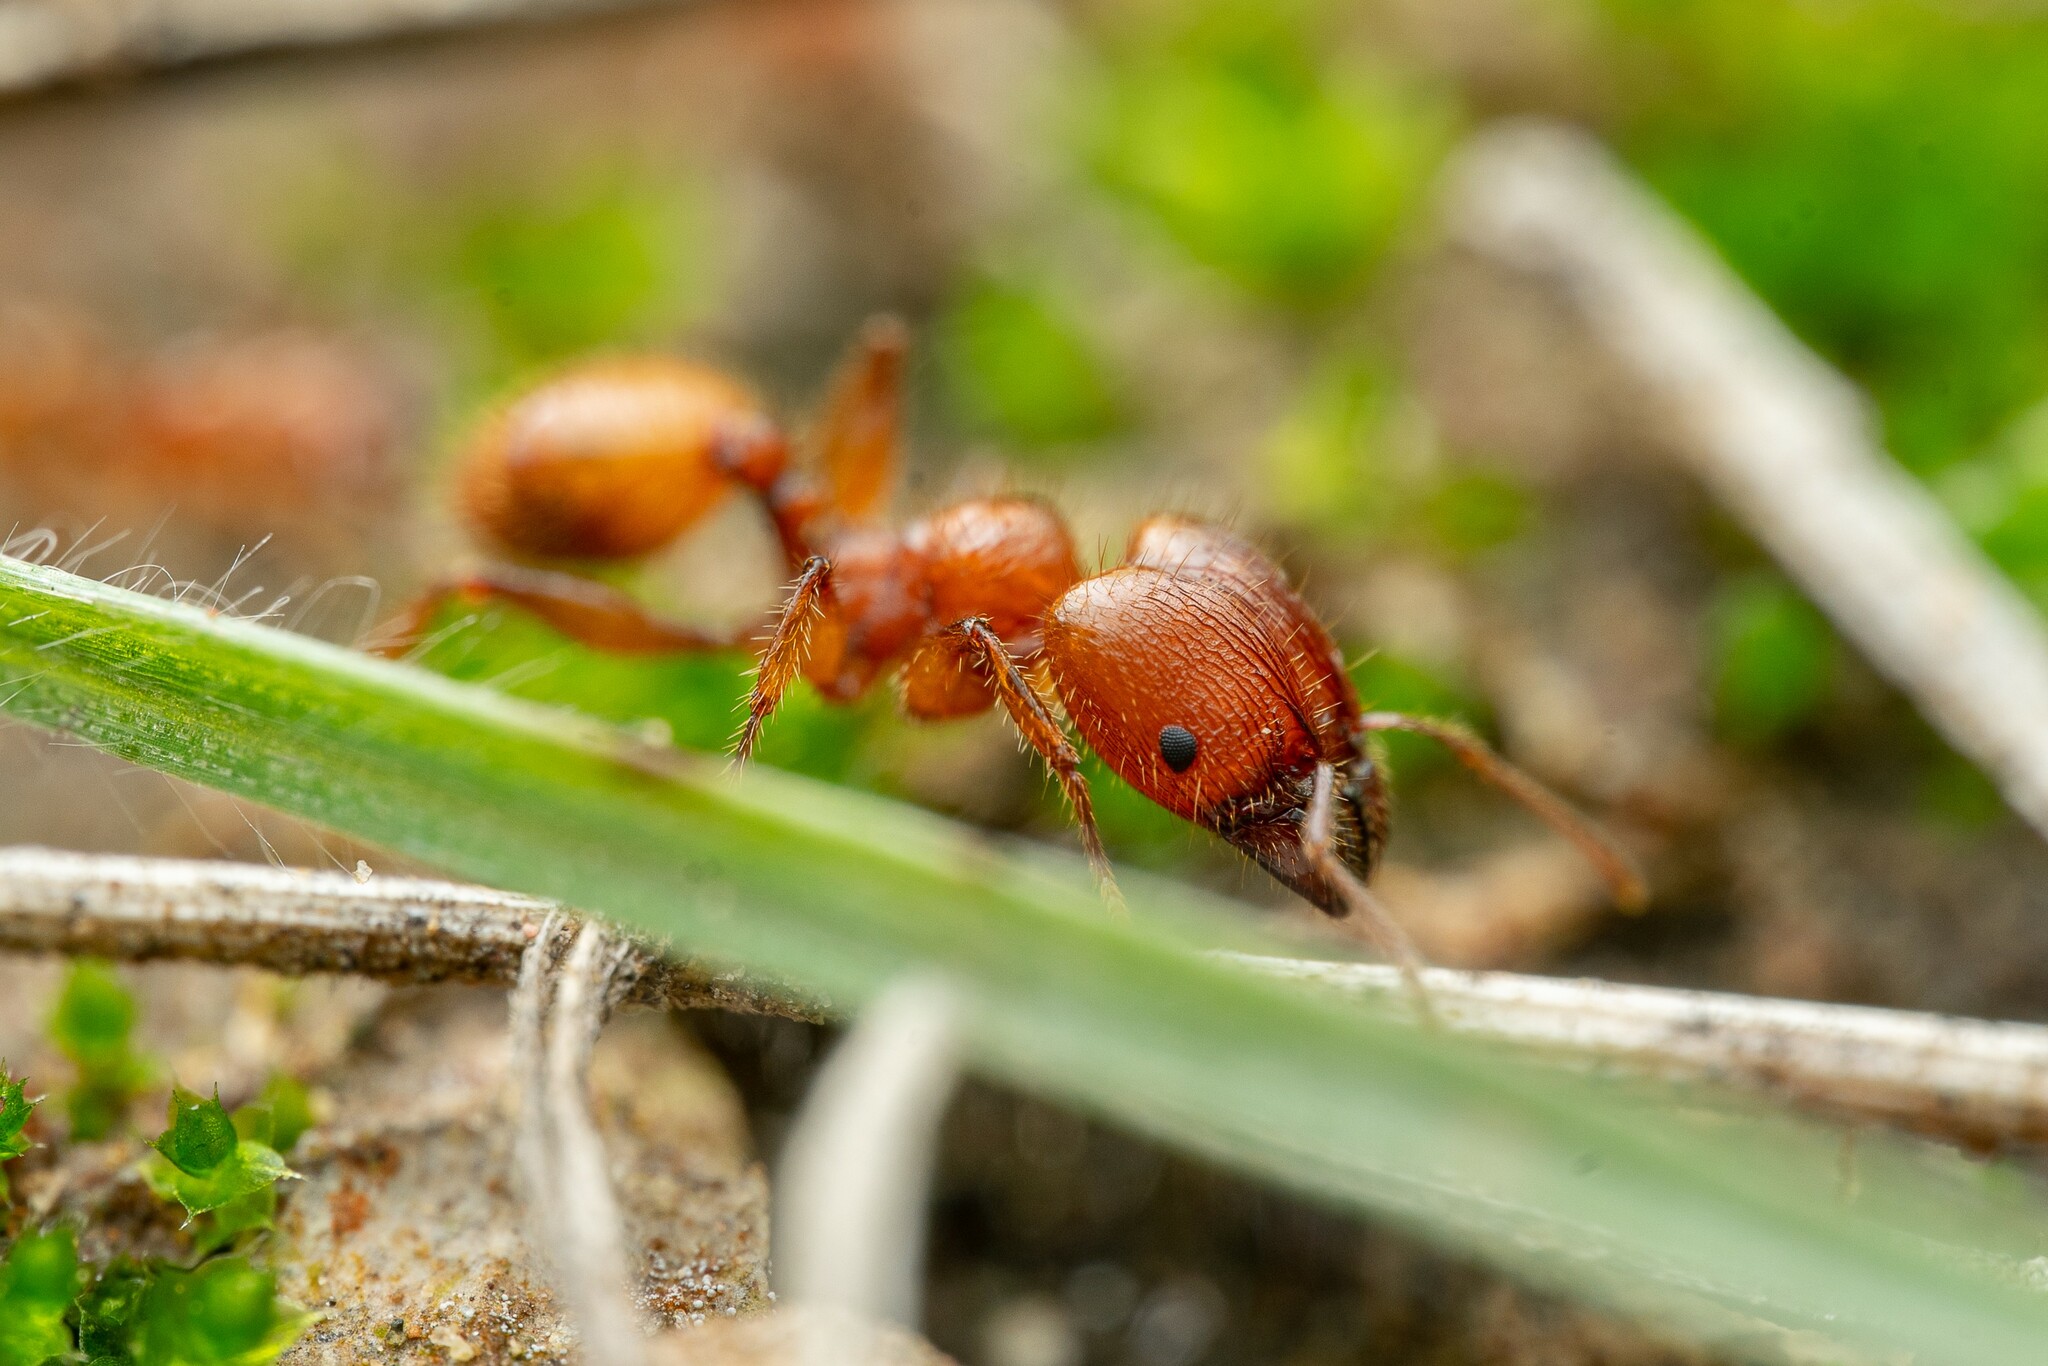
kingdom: Animalia
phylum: Arthropoda
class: Insecta
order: Hymenoptera
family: Formicidae
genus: Pheidole
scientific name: Pheidole titanis
